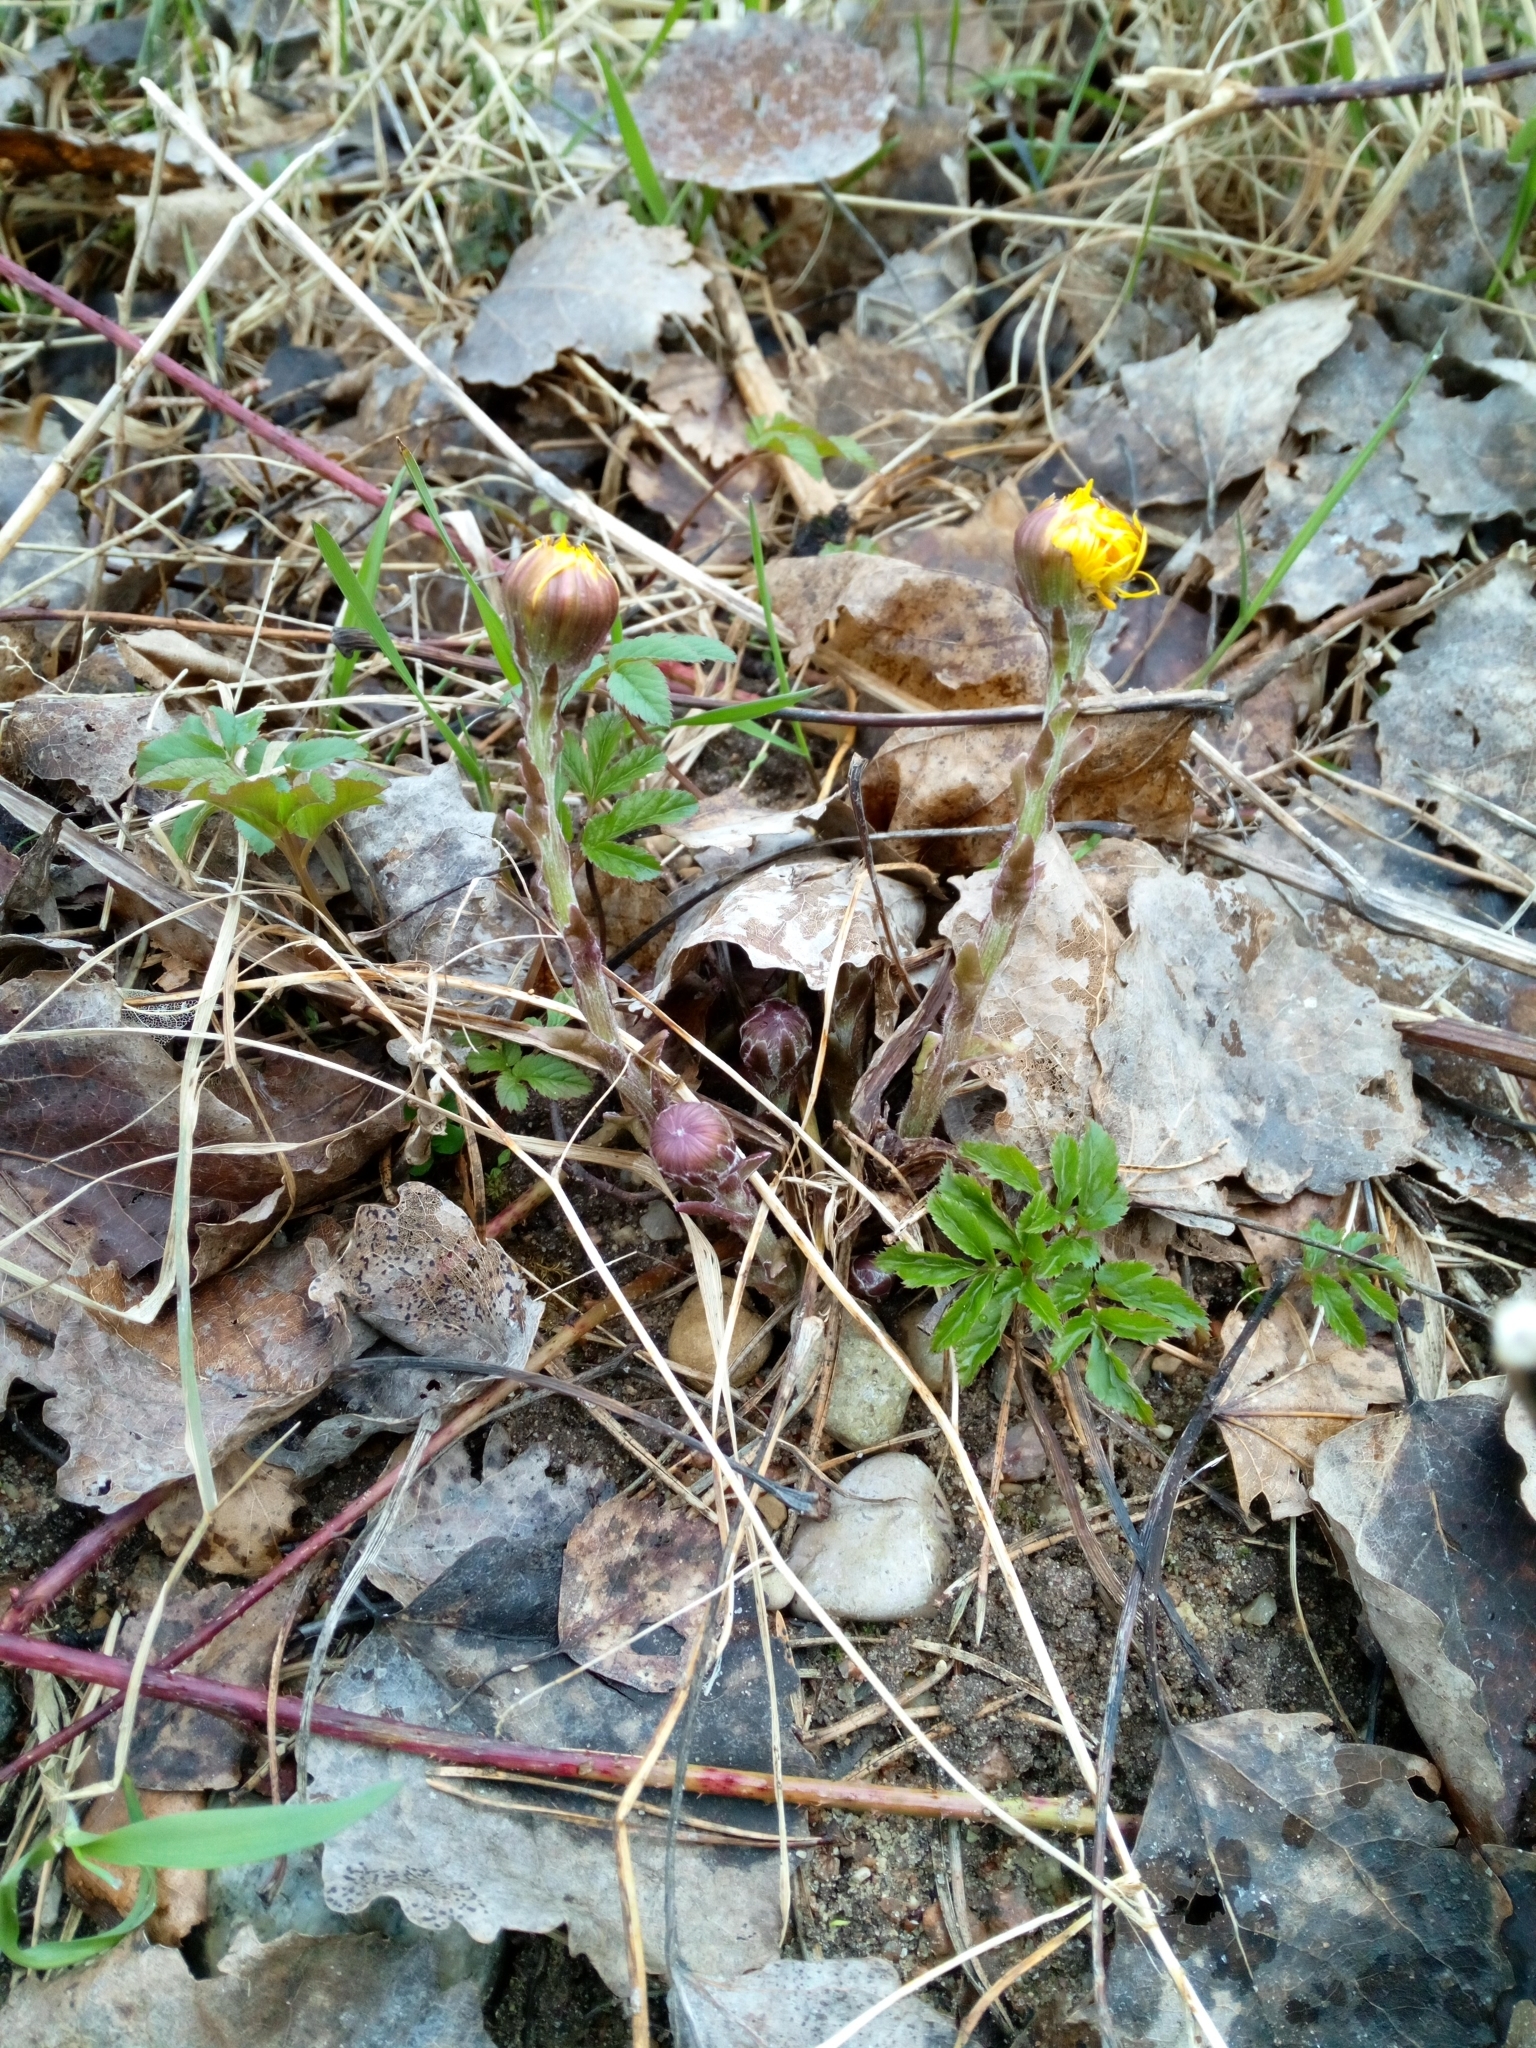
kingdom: Plantae
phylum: Tracheophyta
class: Magnoliopsida
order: Asterales
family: Asteraceae
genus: Tussilago
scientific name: Tussilago farfara
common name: Coltsfoot
